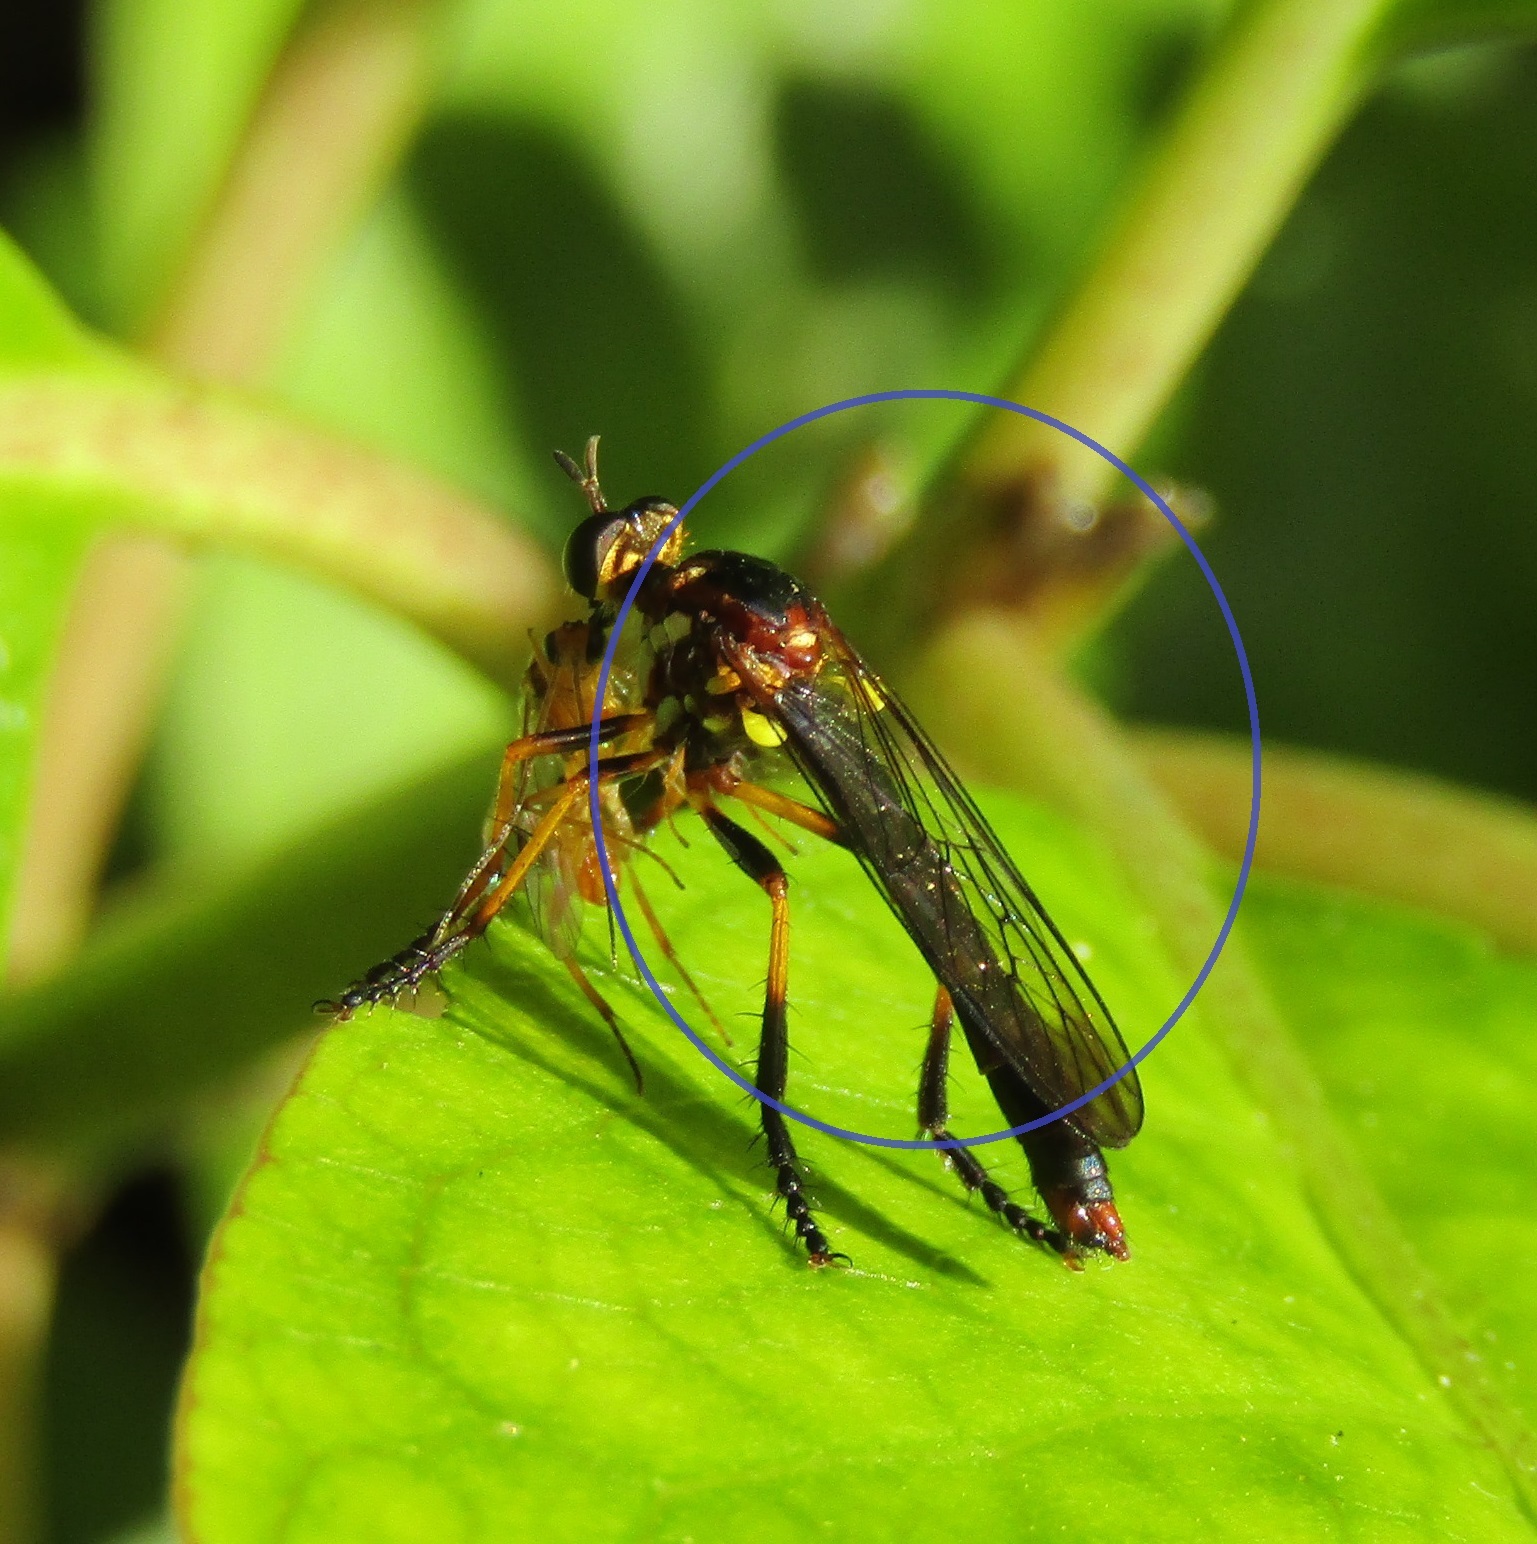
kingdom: Animalia
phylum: Arthropoda
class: Insecta
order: Diptera
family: Asilidae
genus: Saropogon
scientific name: Saropogon fascipes
